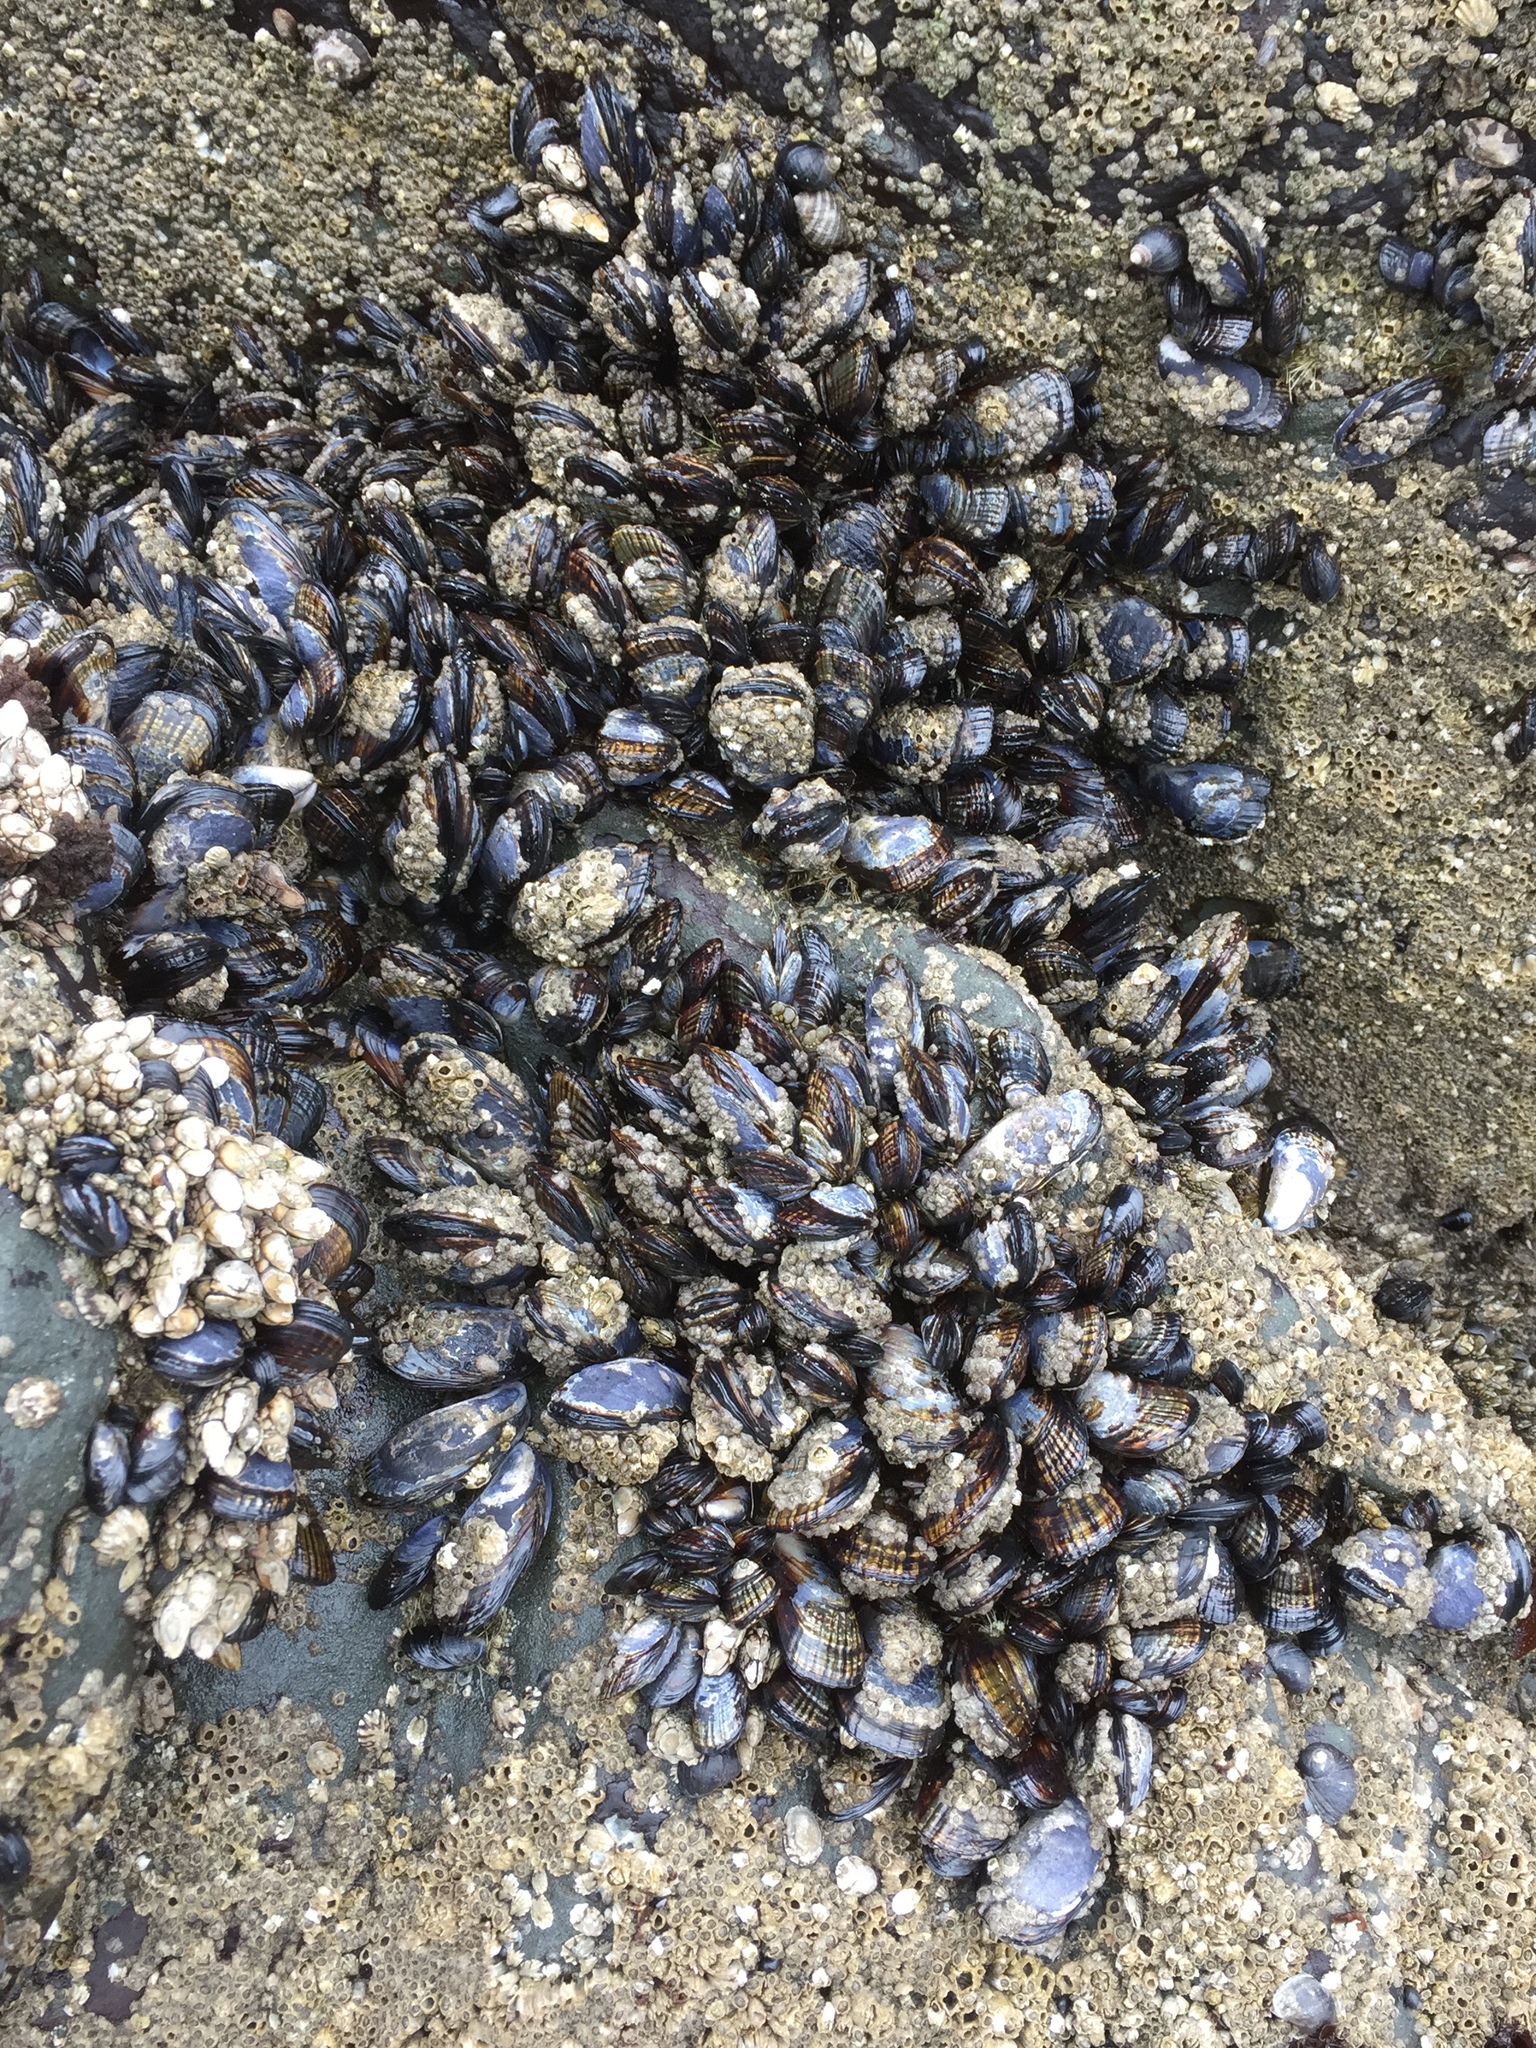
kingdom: Animalia
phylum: Mollusca
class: Bivalvia
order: Mytilida
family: Mytilidae
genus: Mytilus
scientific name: Mytilus californianus
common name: California mussel
